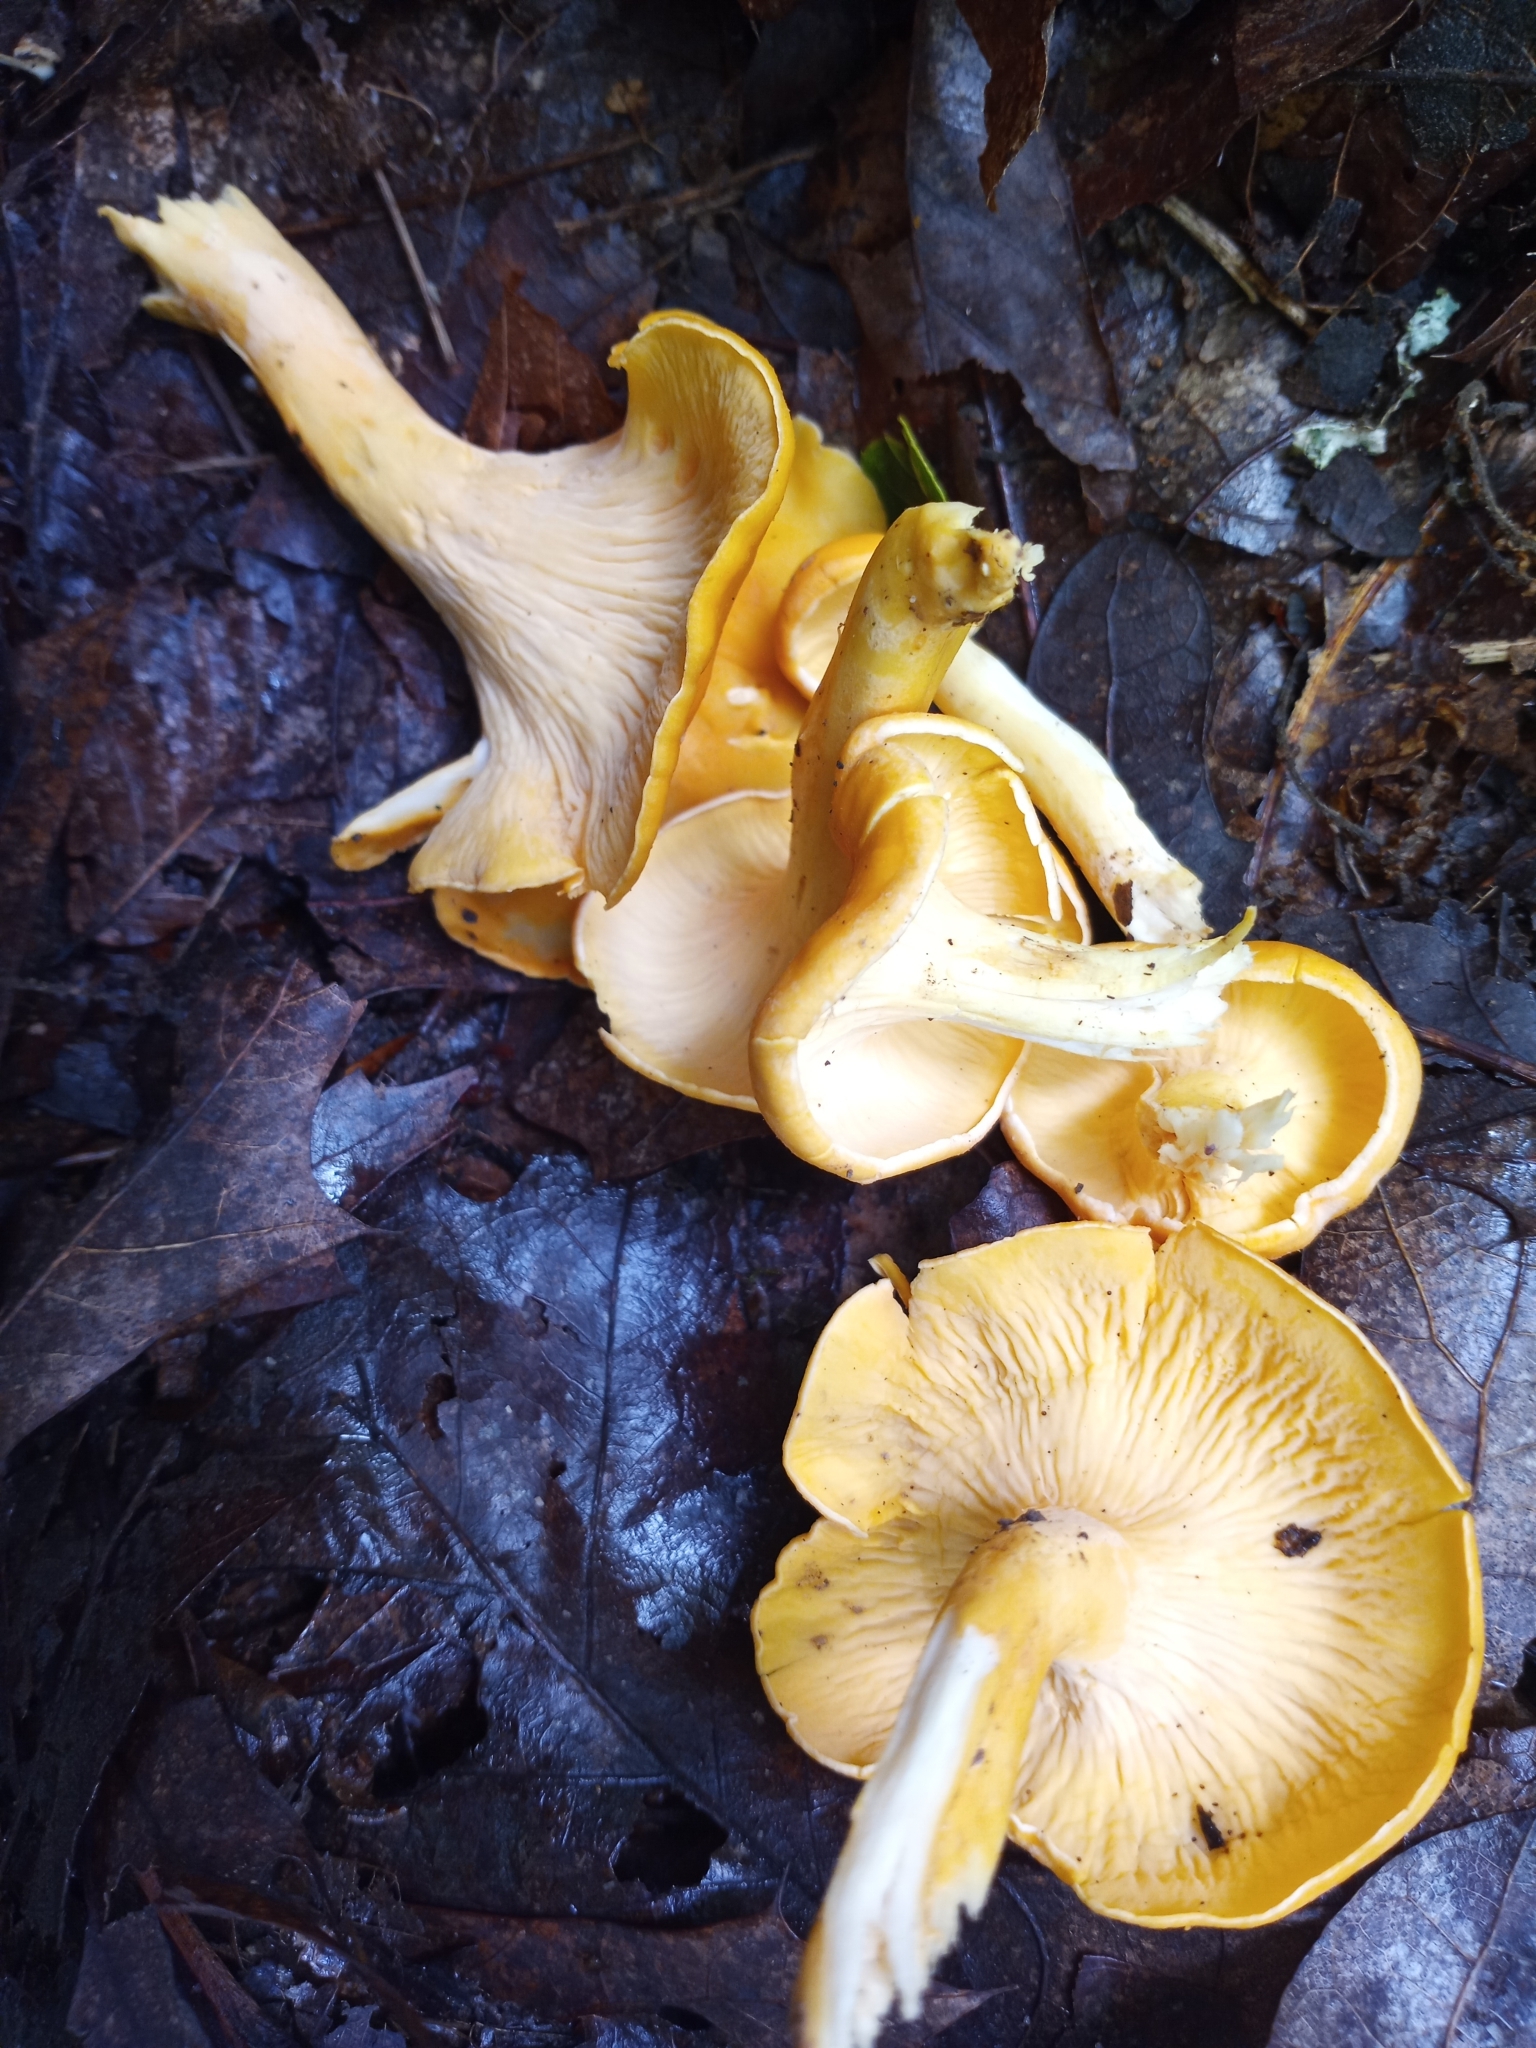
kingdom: Fungi
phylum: Basidiomycota
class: Agaricomycetes
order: Cantharellales
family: Hydnaceae
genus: Cantharellus
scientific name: Cantharellus flavolateritius
